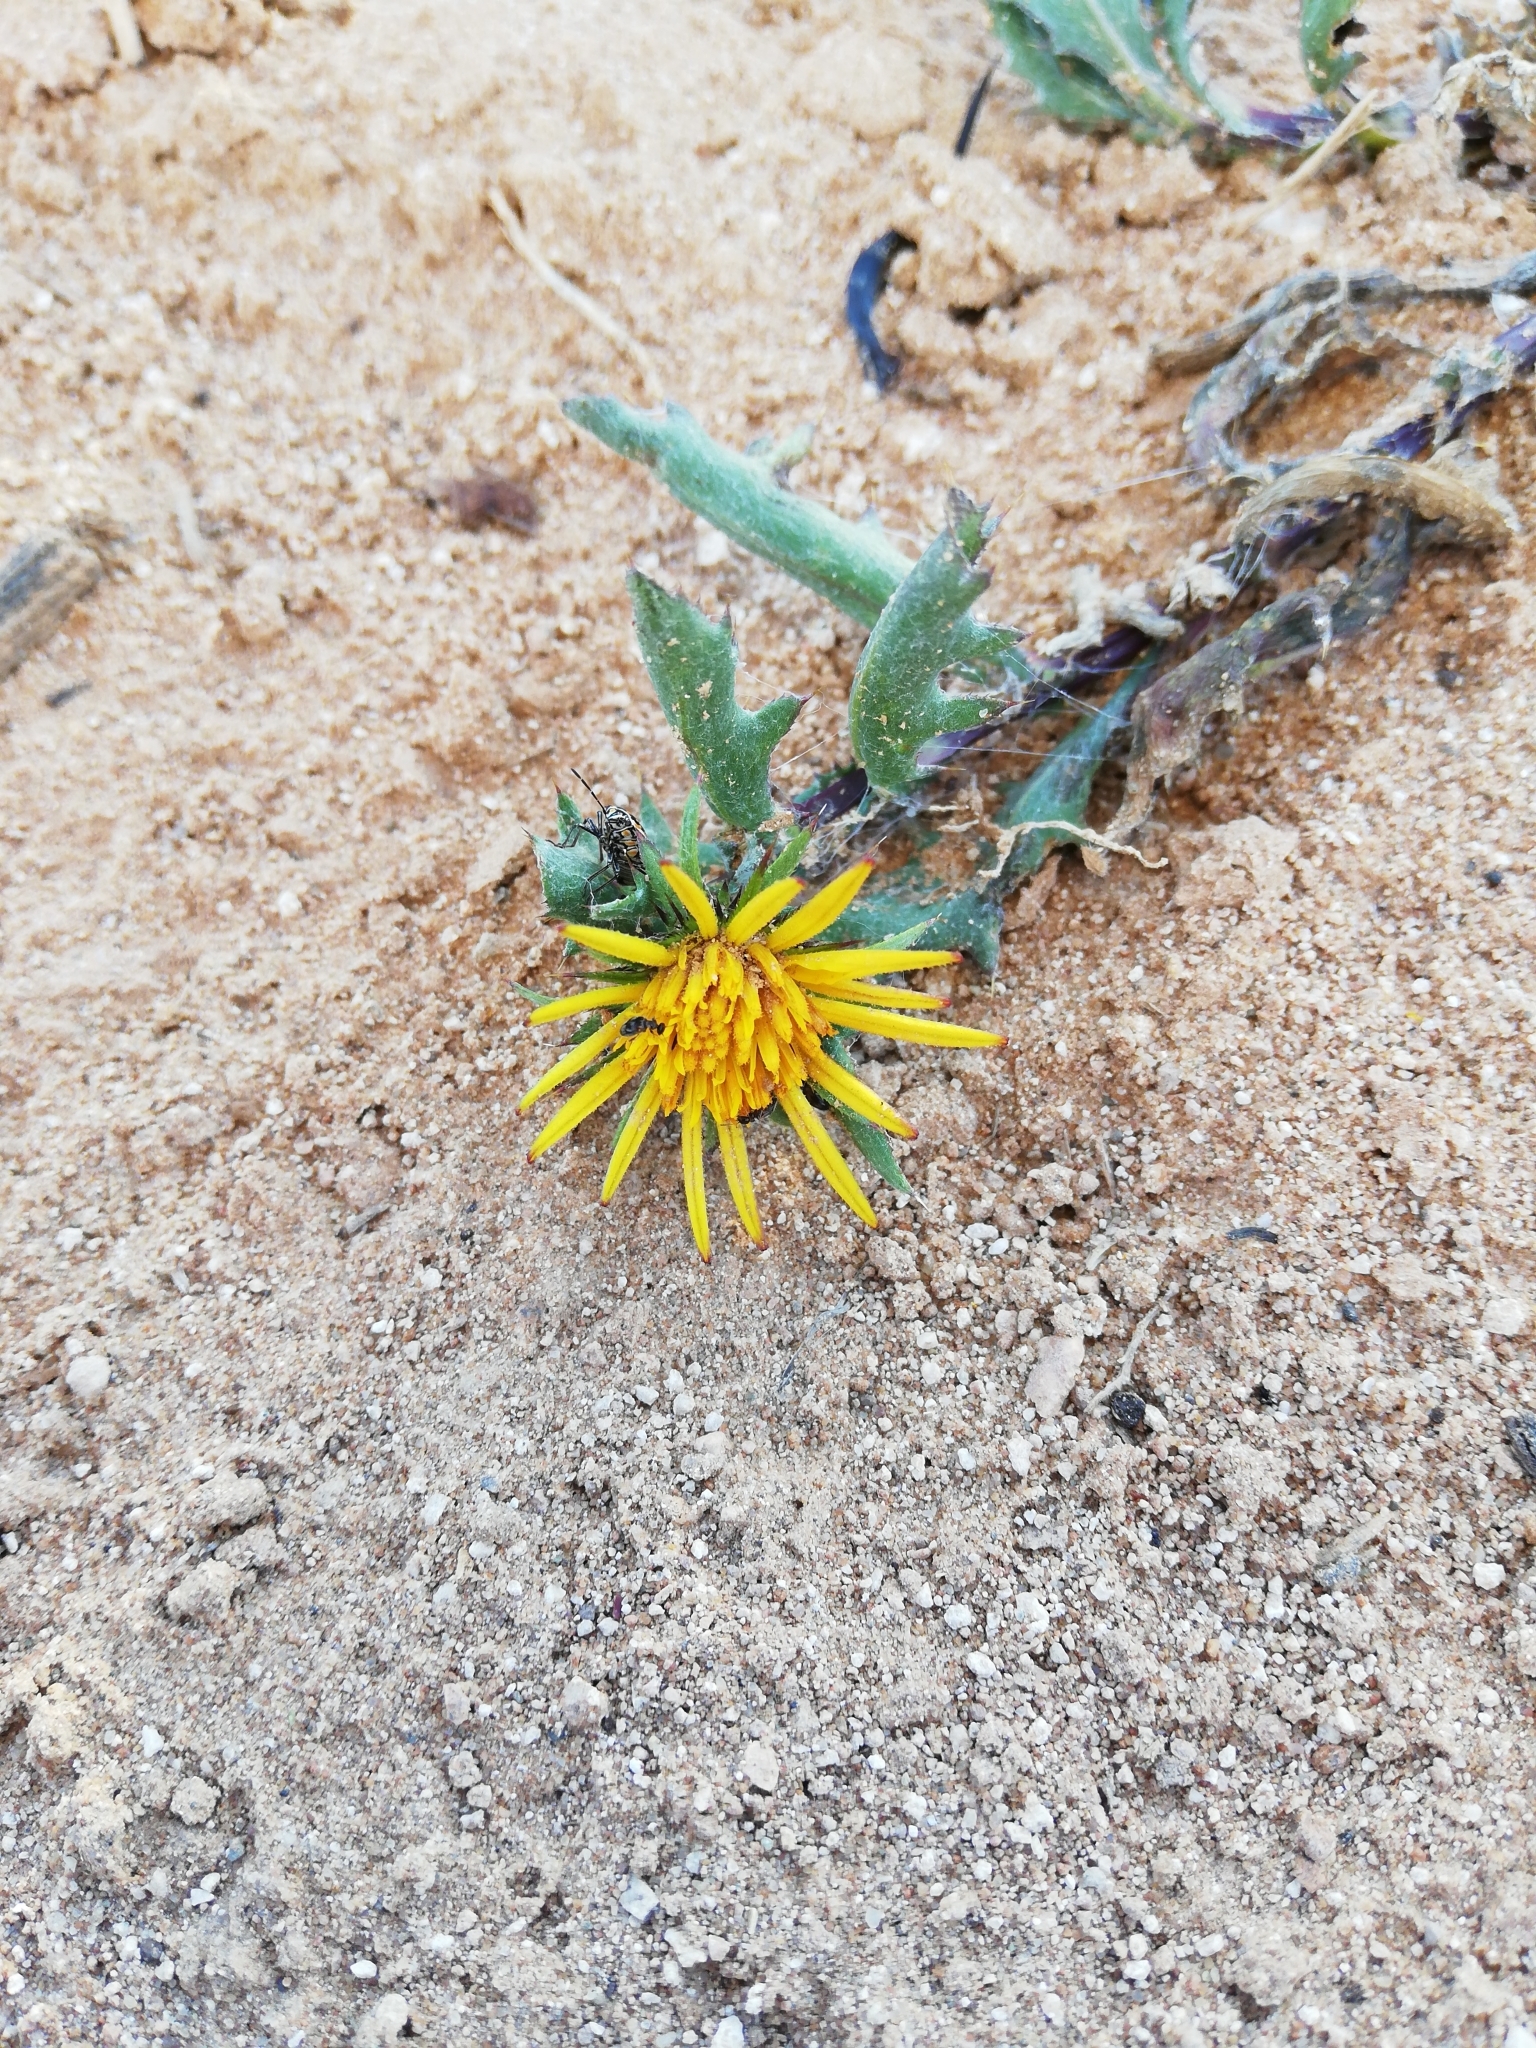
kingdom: Plantae
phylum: Tracheophyta
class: Magnoliopsida
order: Asterales
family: Asteraceae
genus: Cuspidia
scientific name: Cuspidia cernua
